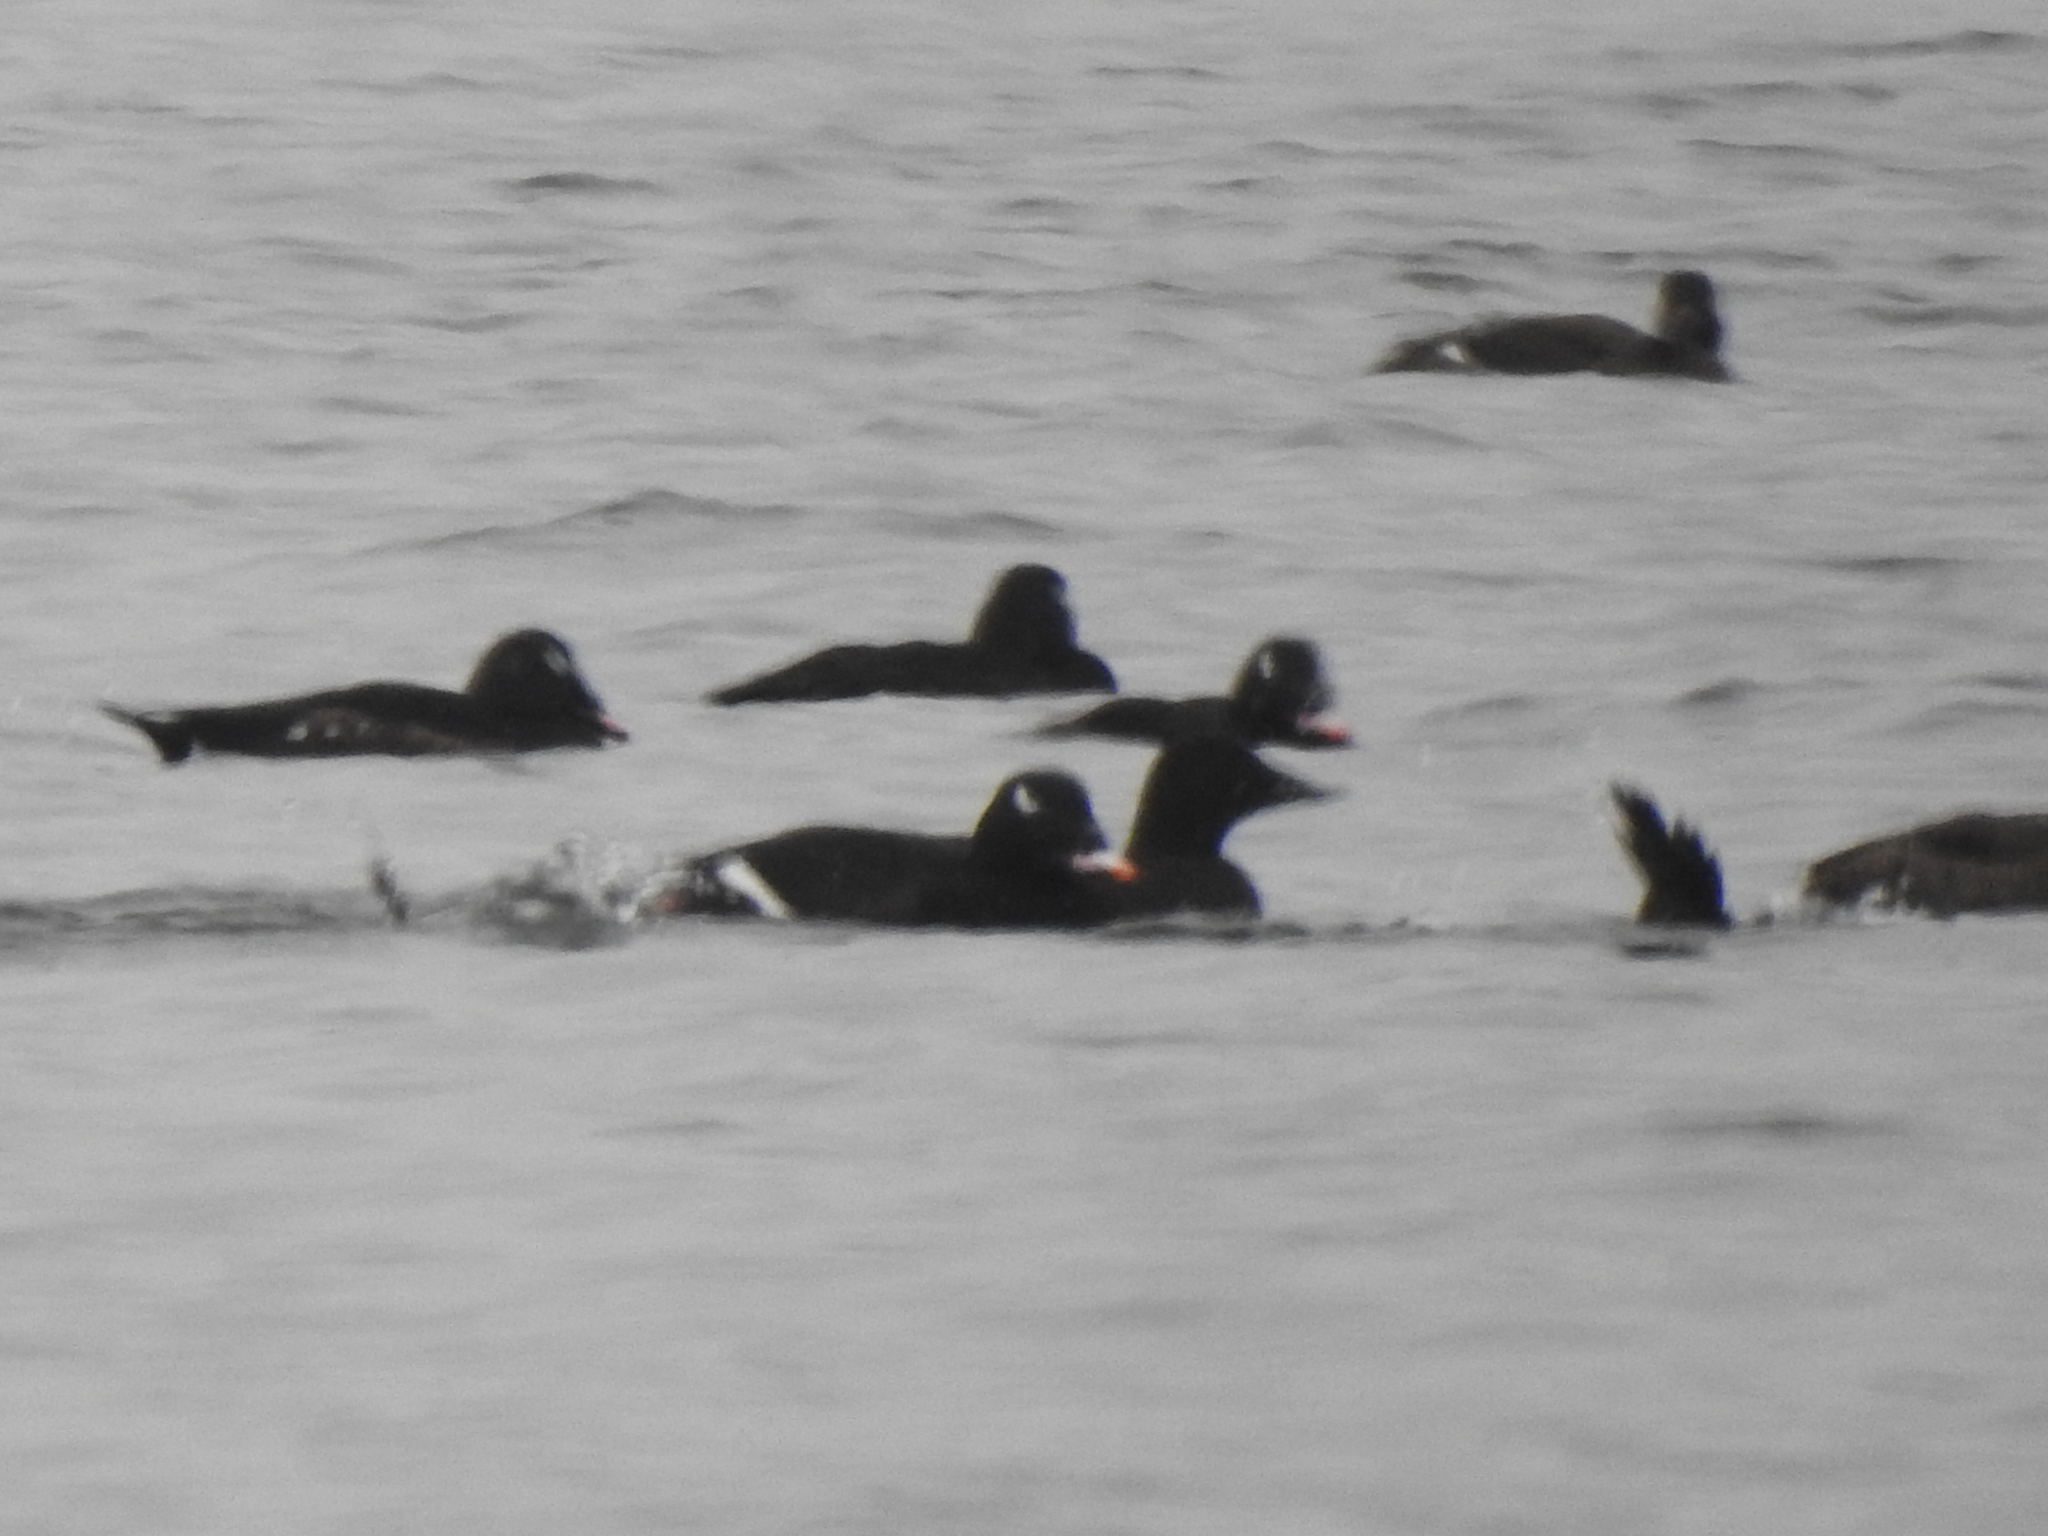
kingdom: Animalia
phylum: Chordata
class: Aves
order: Anseriformes
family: Anatidae
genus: Melanitta
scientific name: Melanitta deglandi
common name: White-winged scoter
